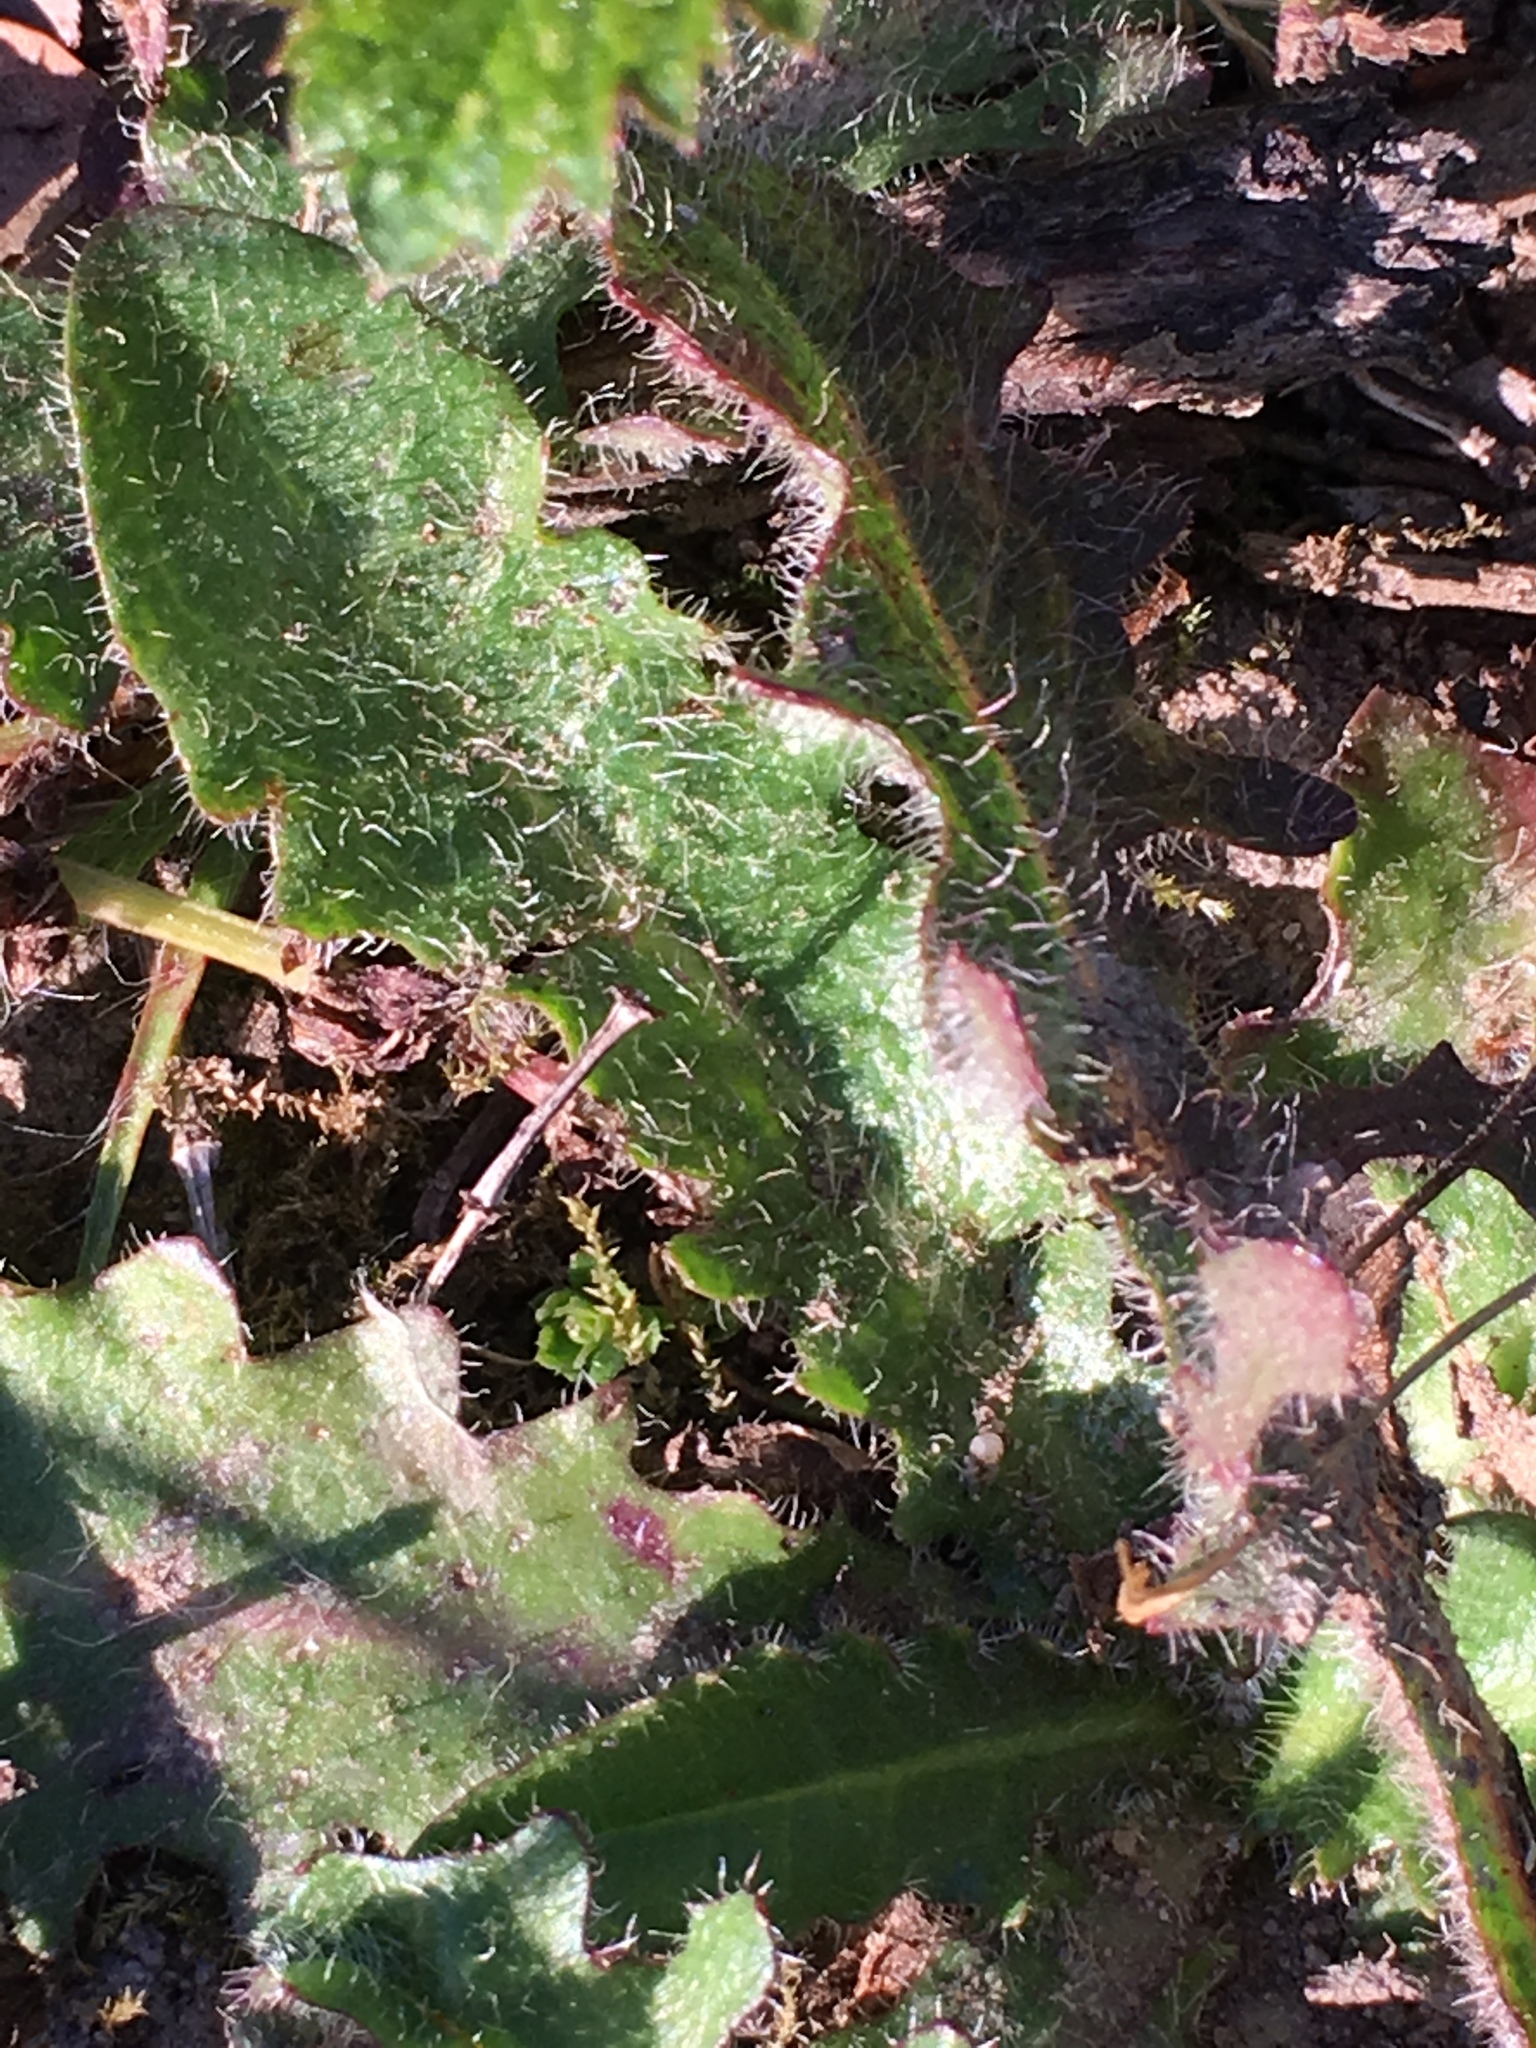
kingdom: Plantae
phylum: Tracheophyta
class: Magnoliopsida
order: Asterales
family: Asteraceae
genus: Hypochaeris
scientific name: Hypochaeris radicata
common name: Flatweed
